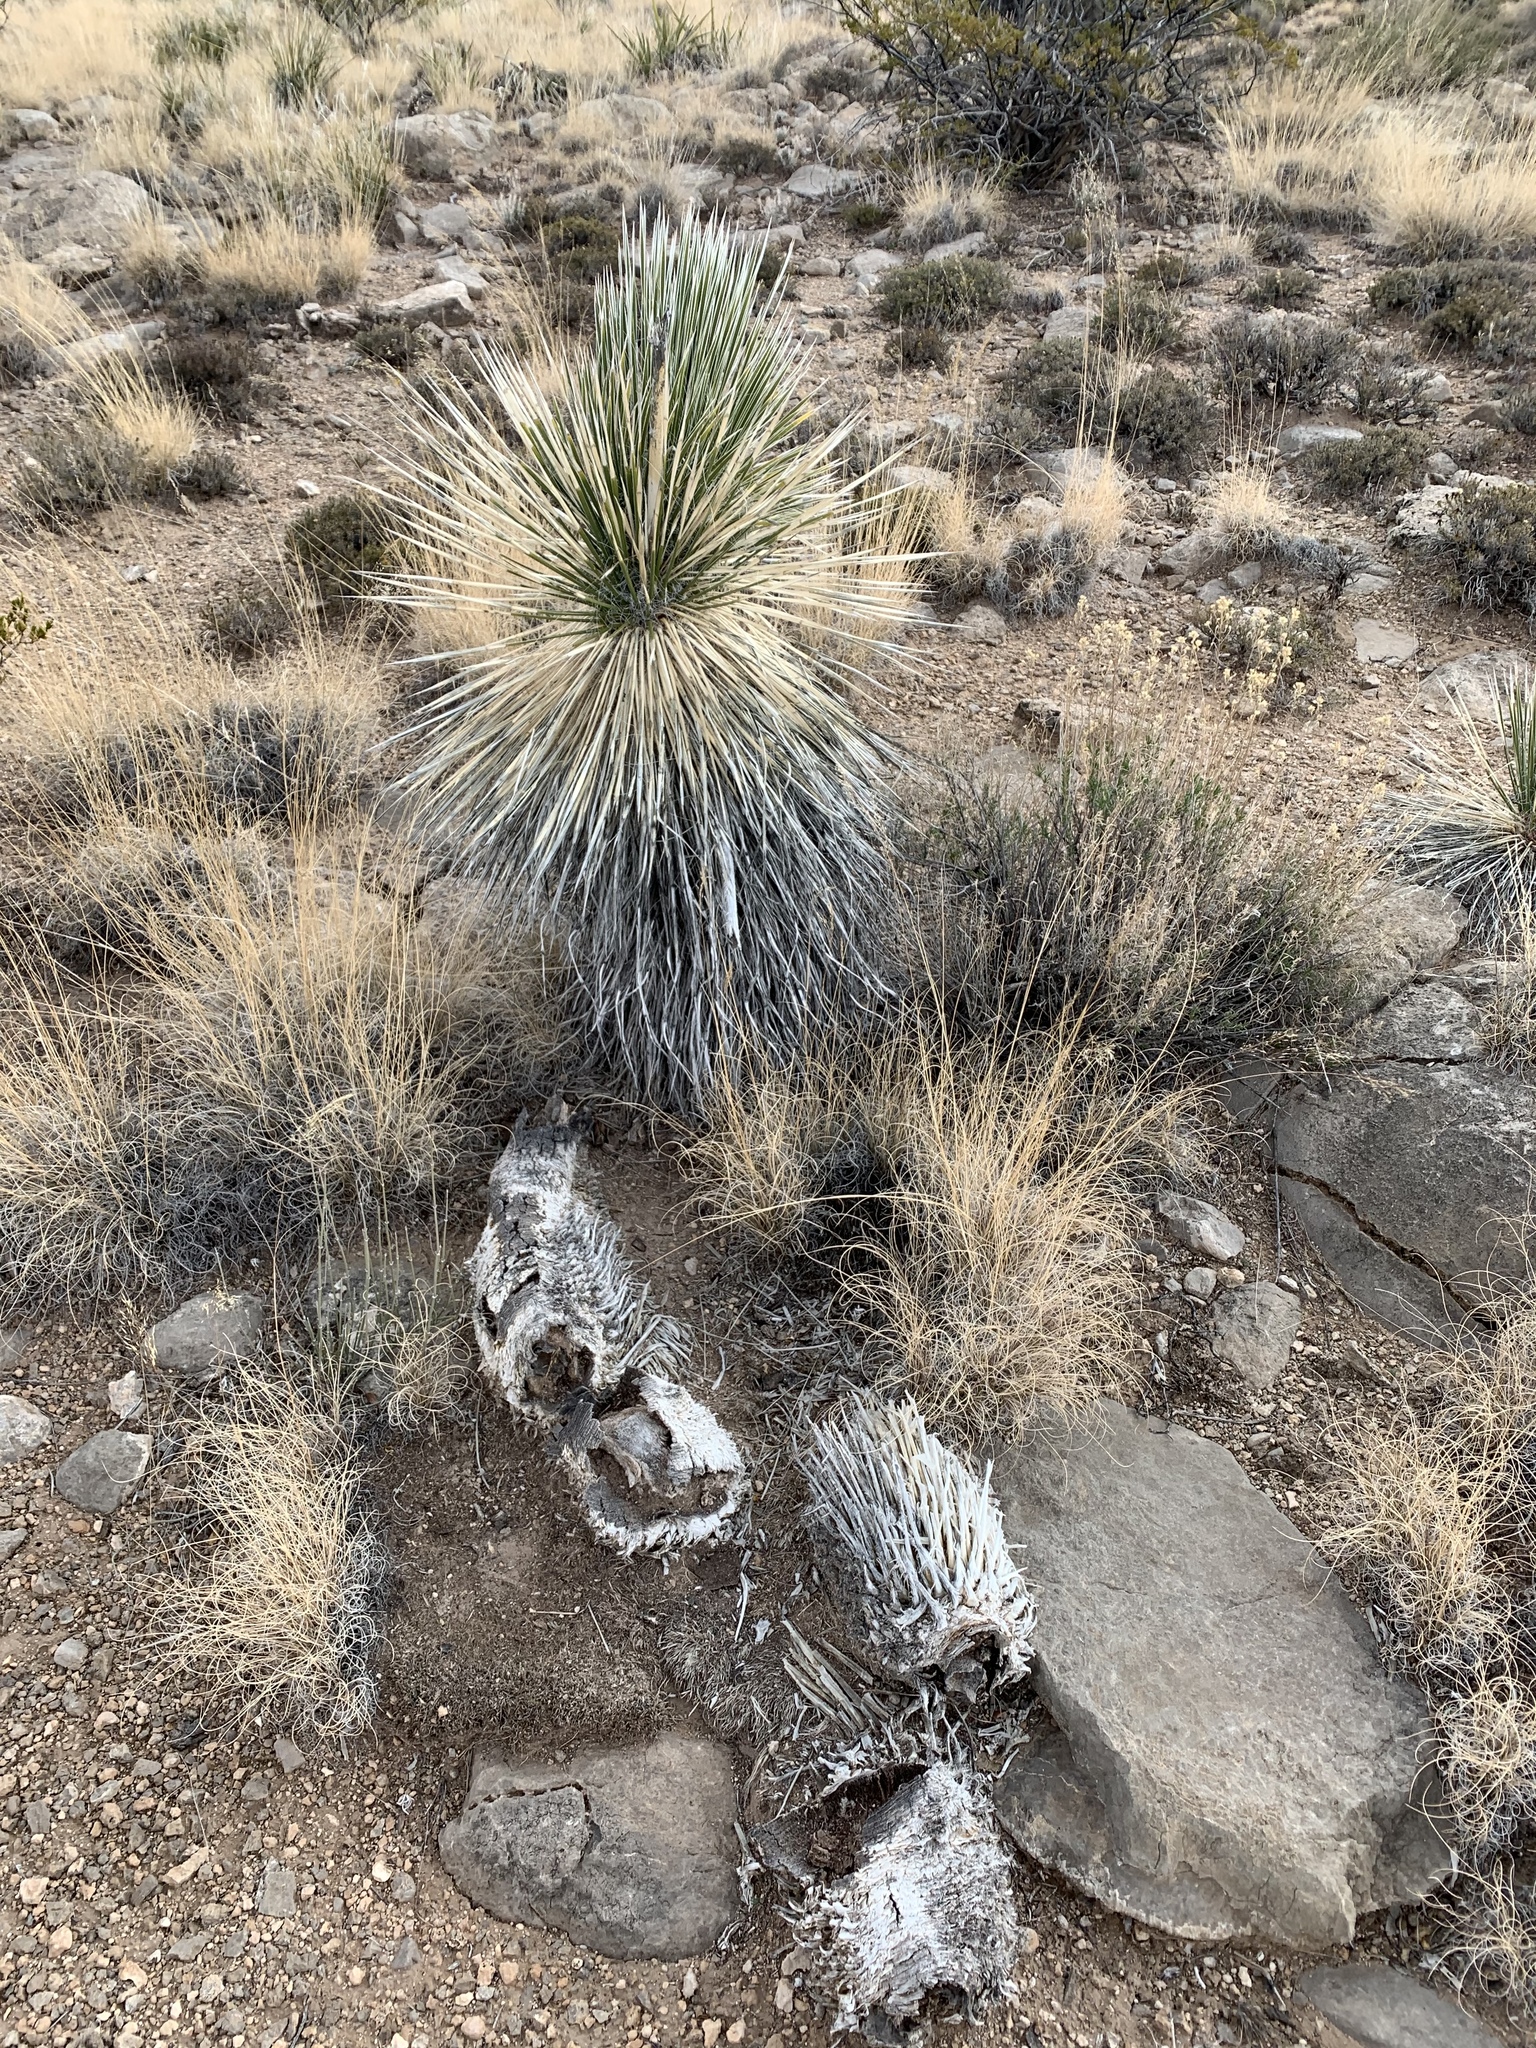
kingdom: Plantae
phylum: Tracheophyta
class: Liliopsida
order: Asparagales
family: Asparagaceae
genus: Yucca
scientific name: Yucca elata
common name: Palmella
